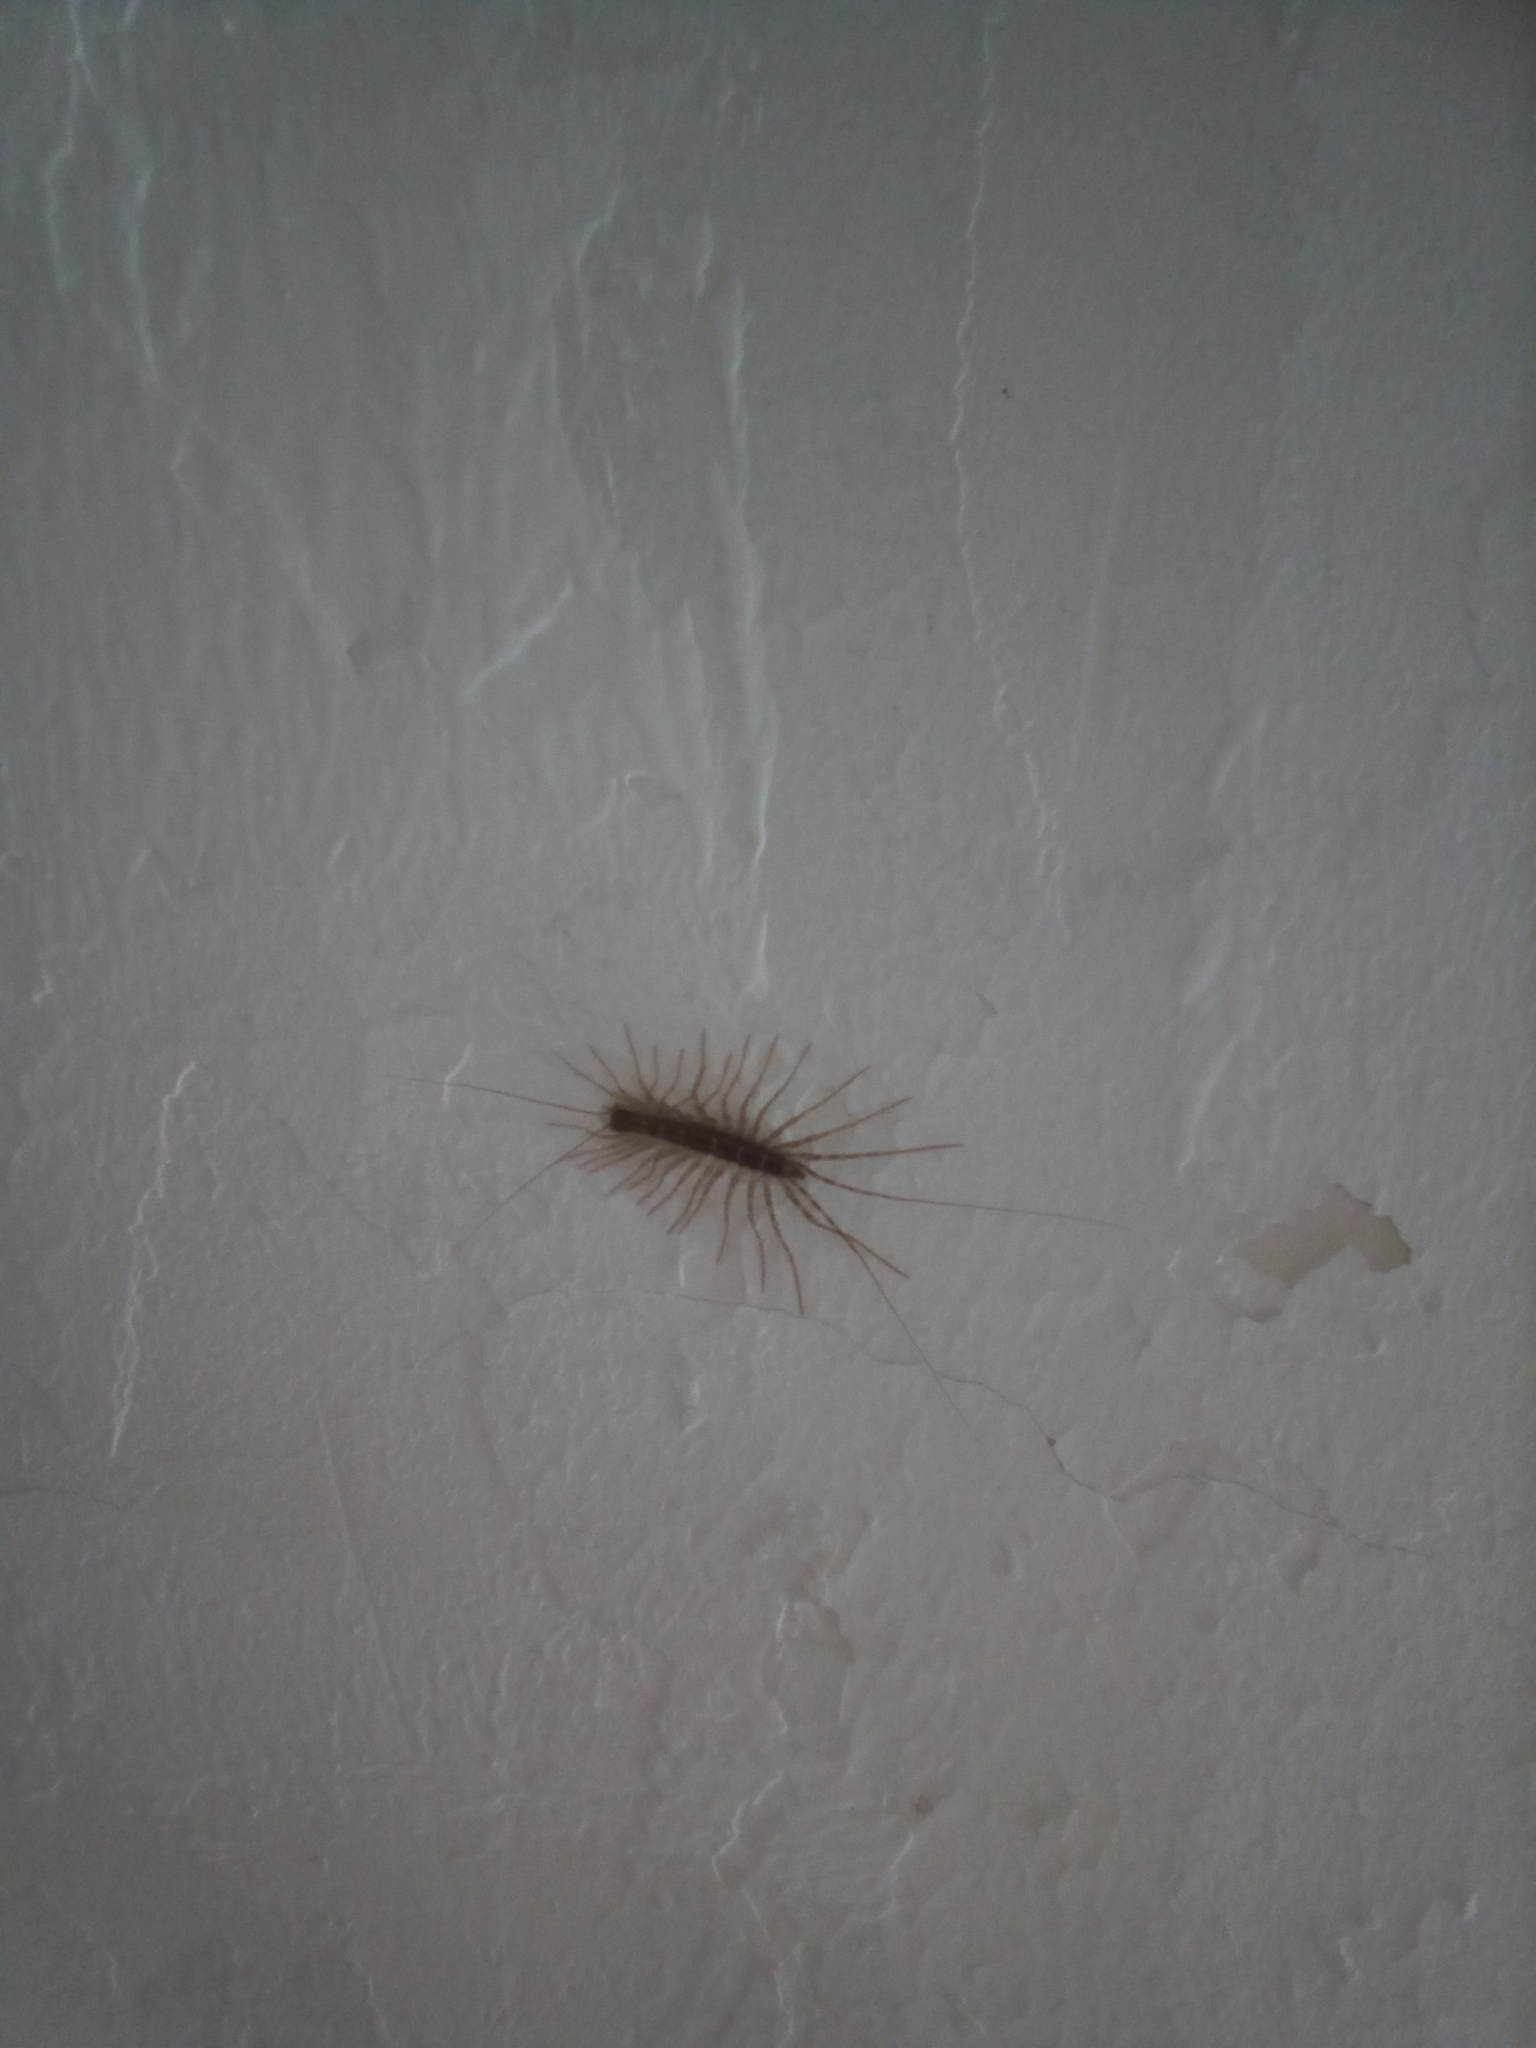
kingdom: Animalia
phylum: Arthropoda
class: Chilopoda
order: Scutigeromorpha
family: Scutigeridae
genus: Scutigera
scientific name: Scutigera coleoptrata
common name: House centipede
